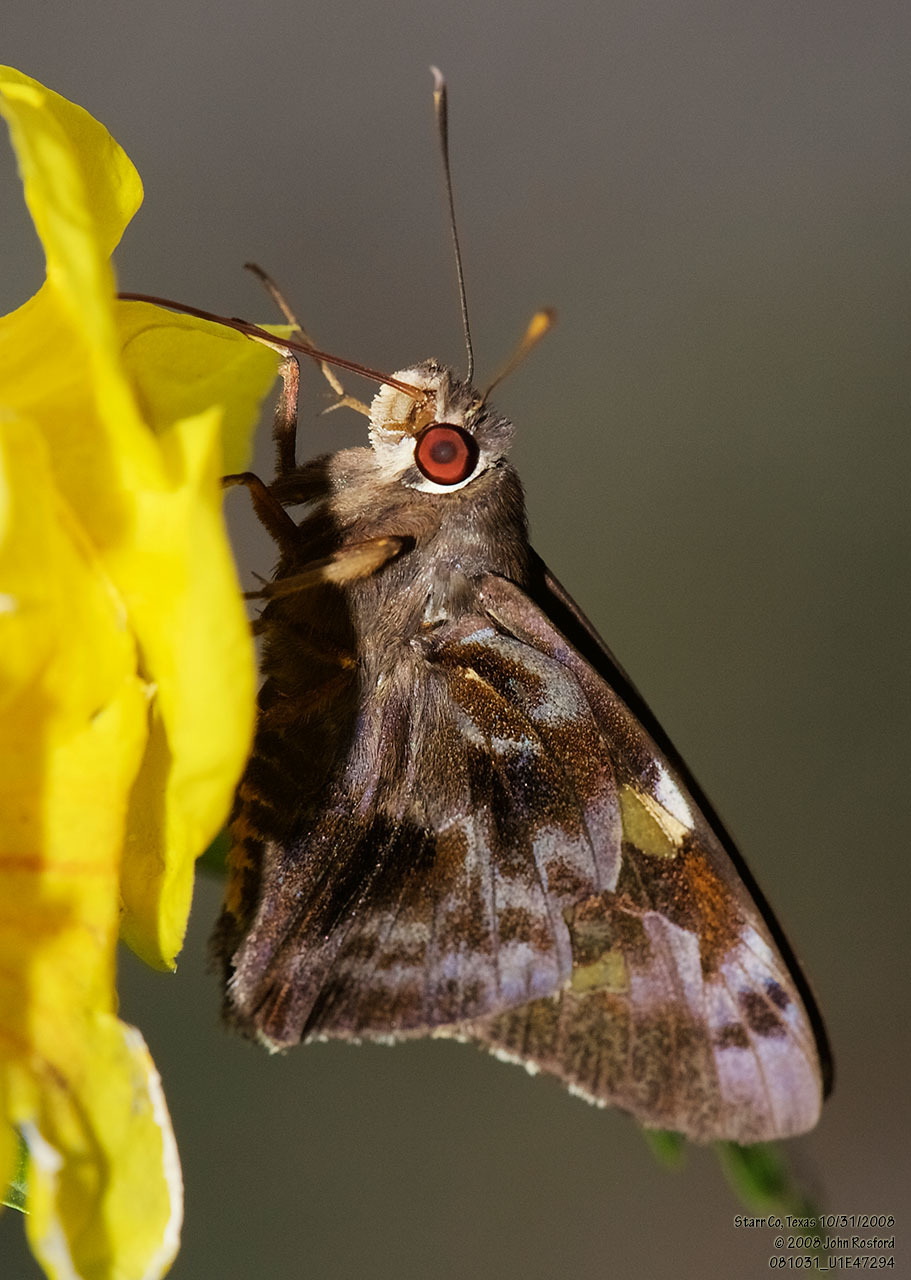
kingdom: Animalia
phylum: Arthropoda
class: Insecta
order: Lepidoptera
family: Hesperiidae
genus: Perichares
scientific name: Perichares philetes
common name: Green-backed ruby-eye
